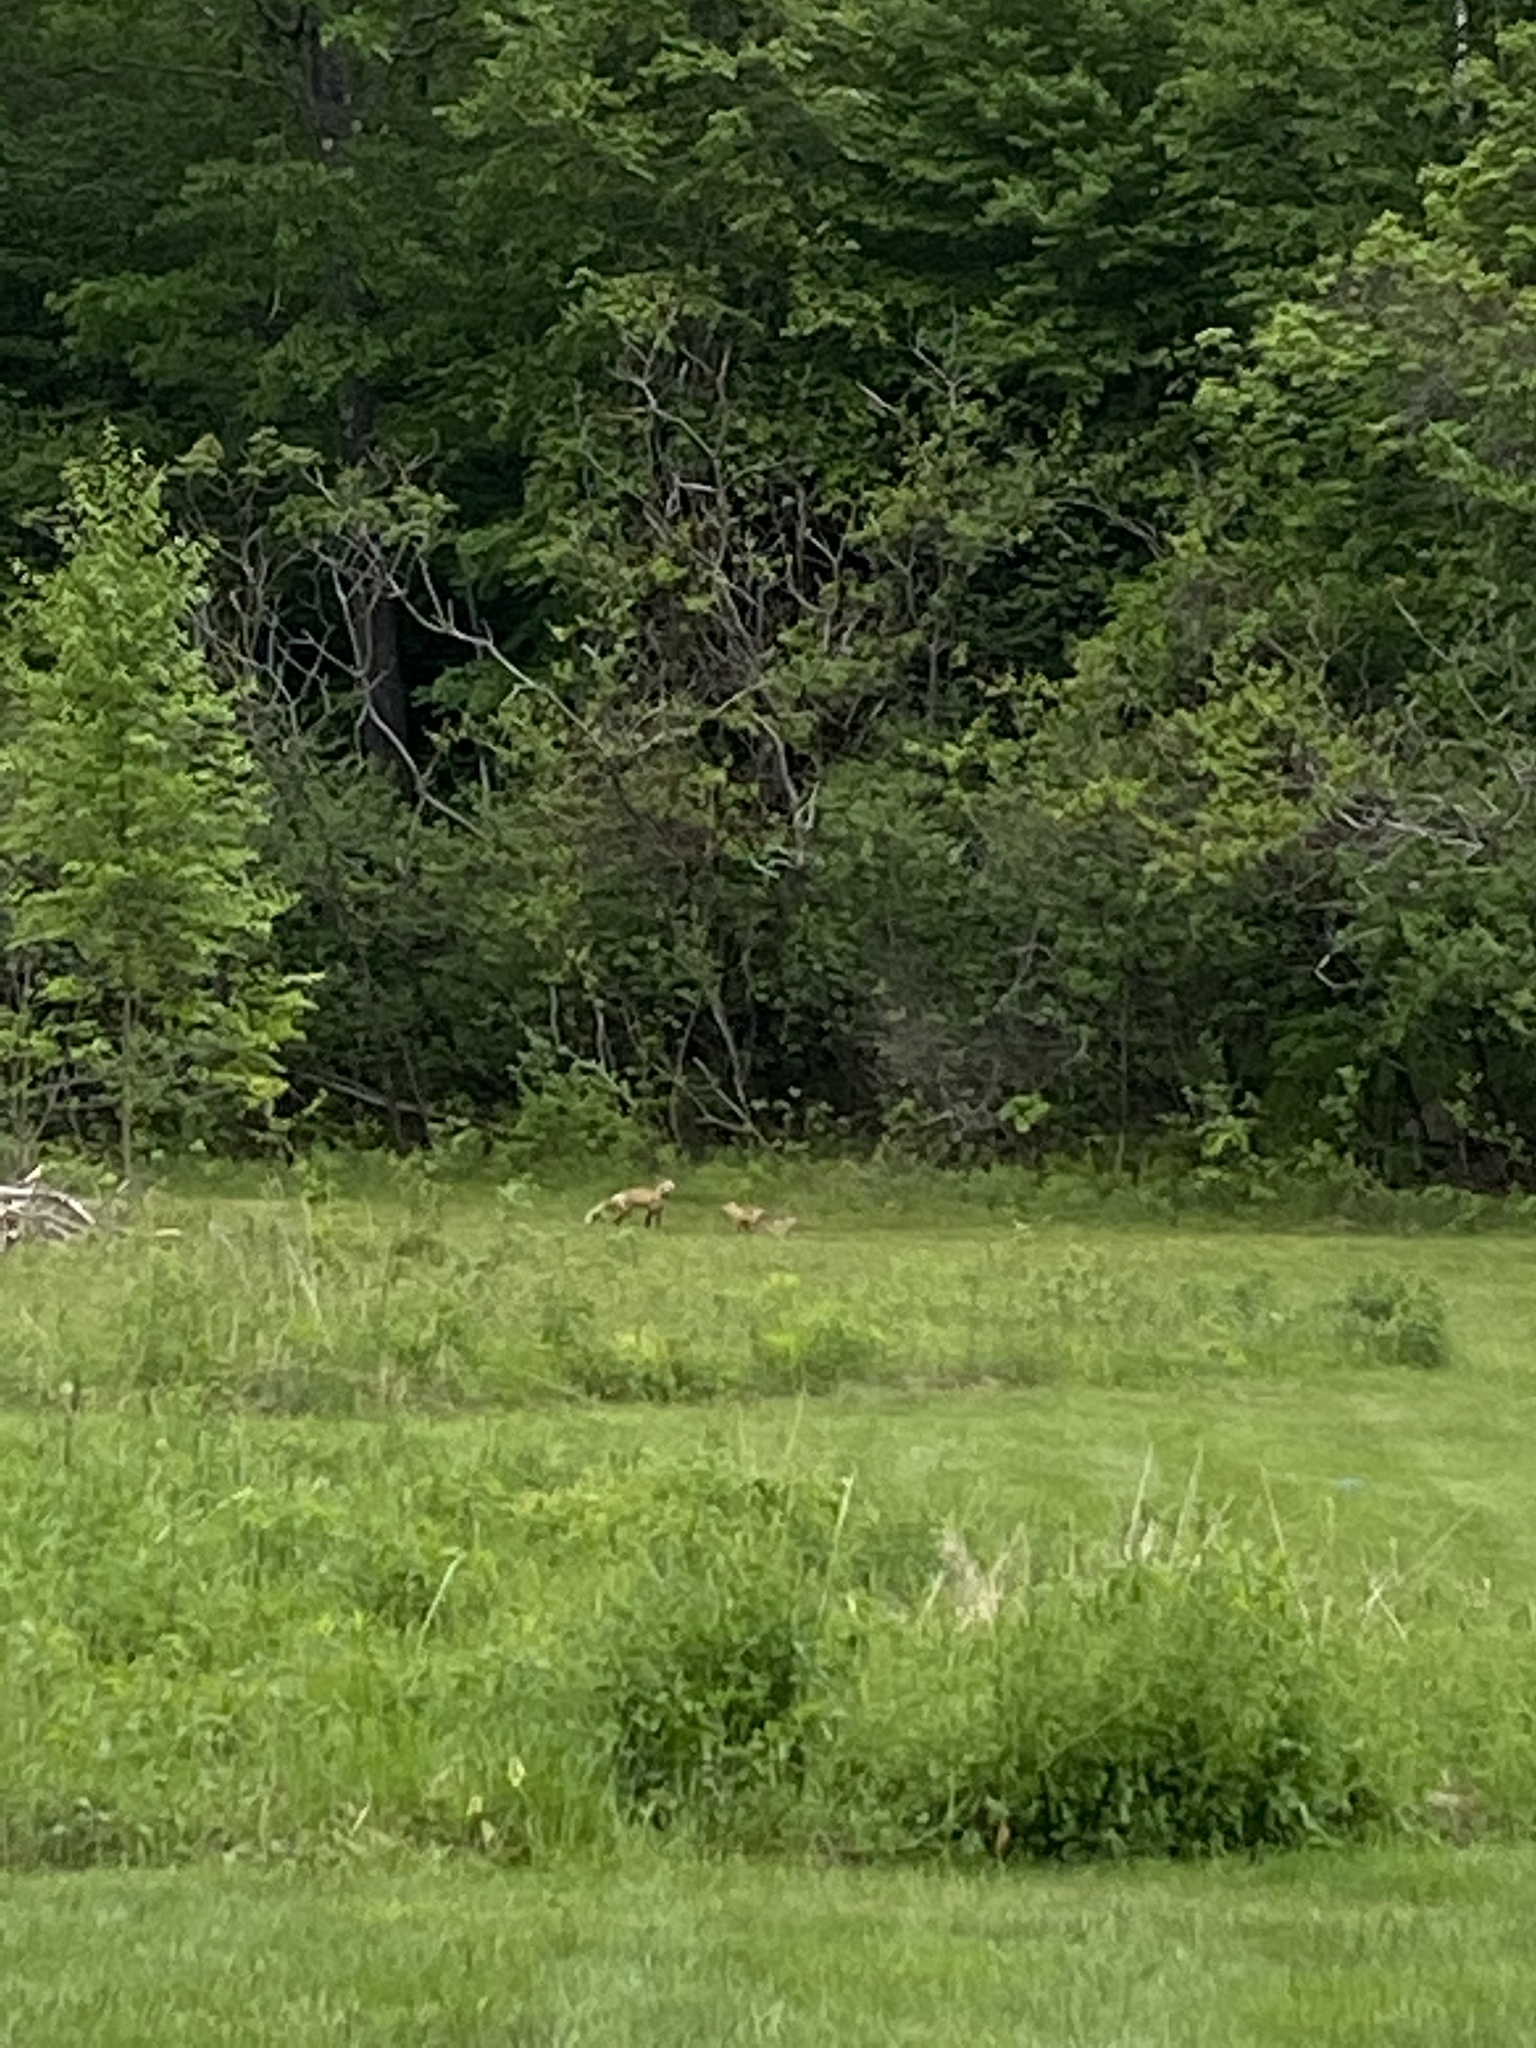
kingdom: Animalia
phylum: Chordata
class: Mammalia
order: Carnivora
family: Canidae
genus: Vulpes
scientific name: Vulpes vulpes
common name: Red fox
